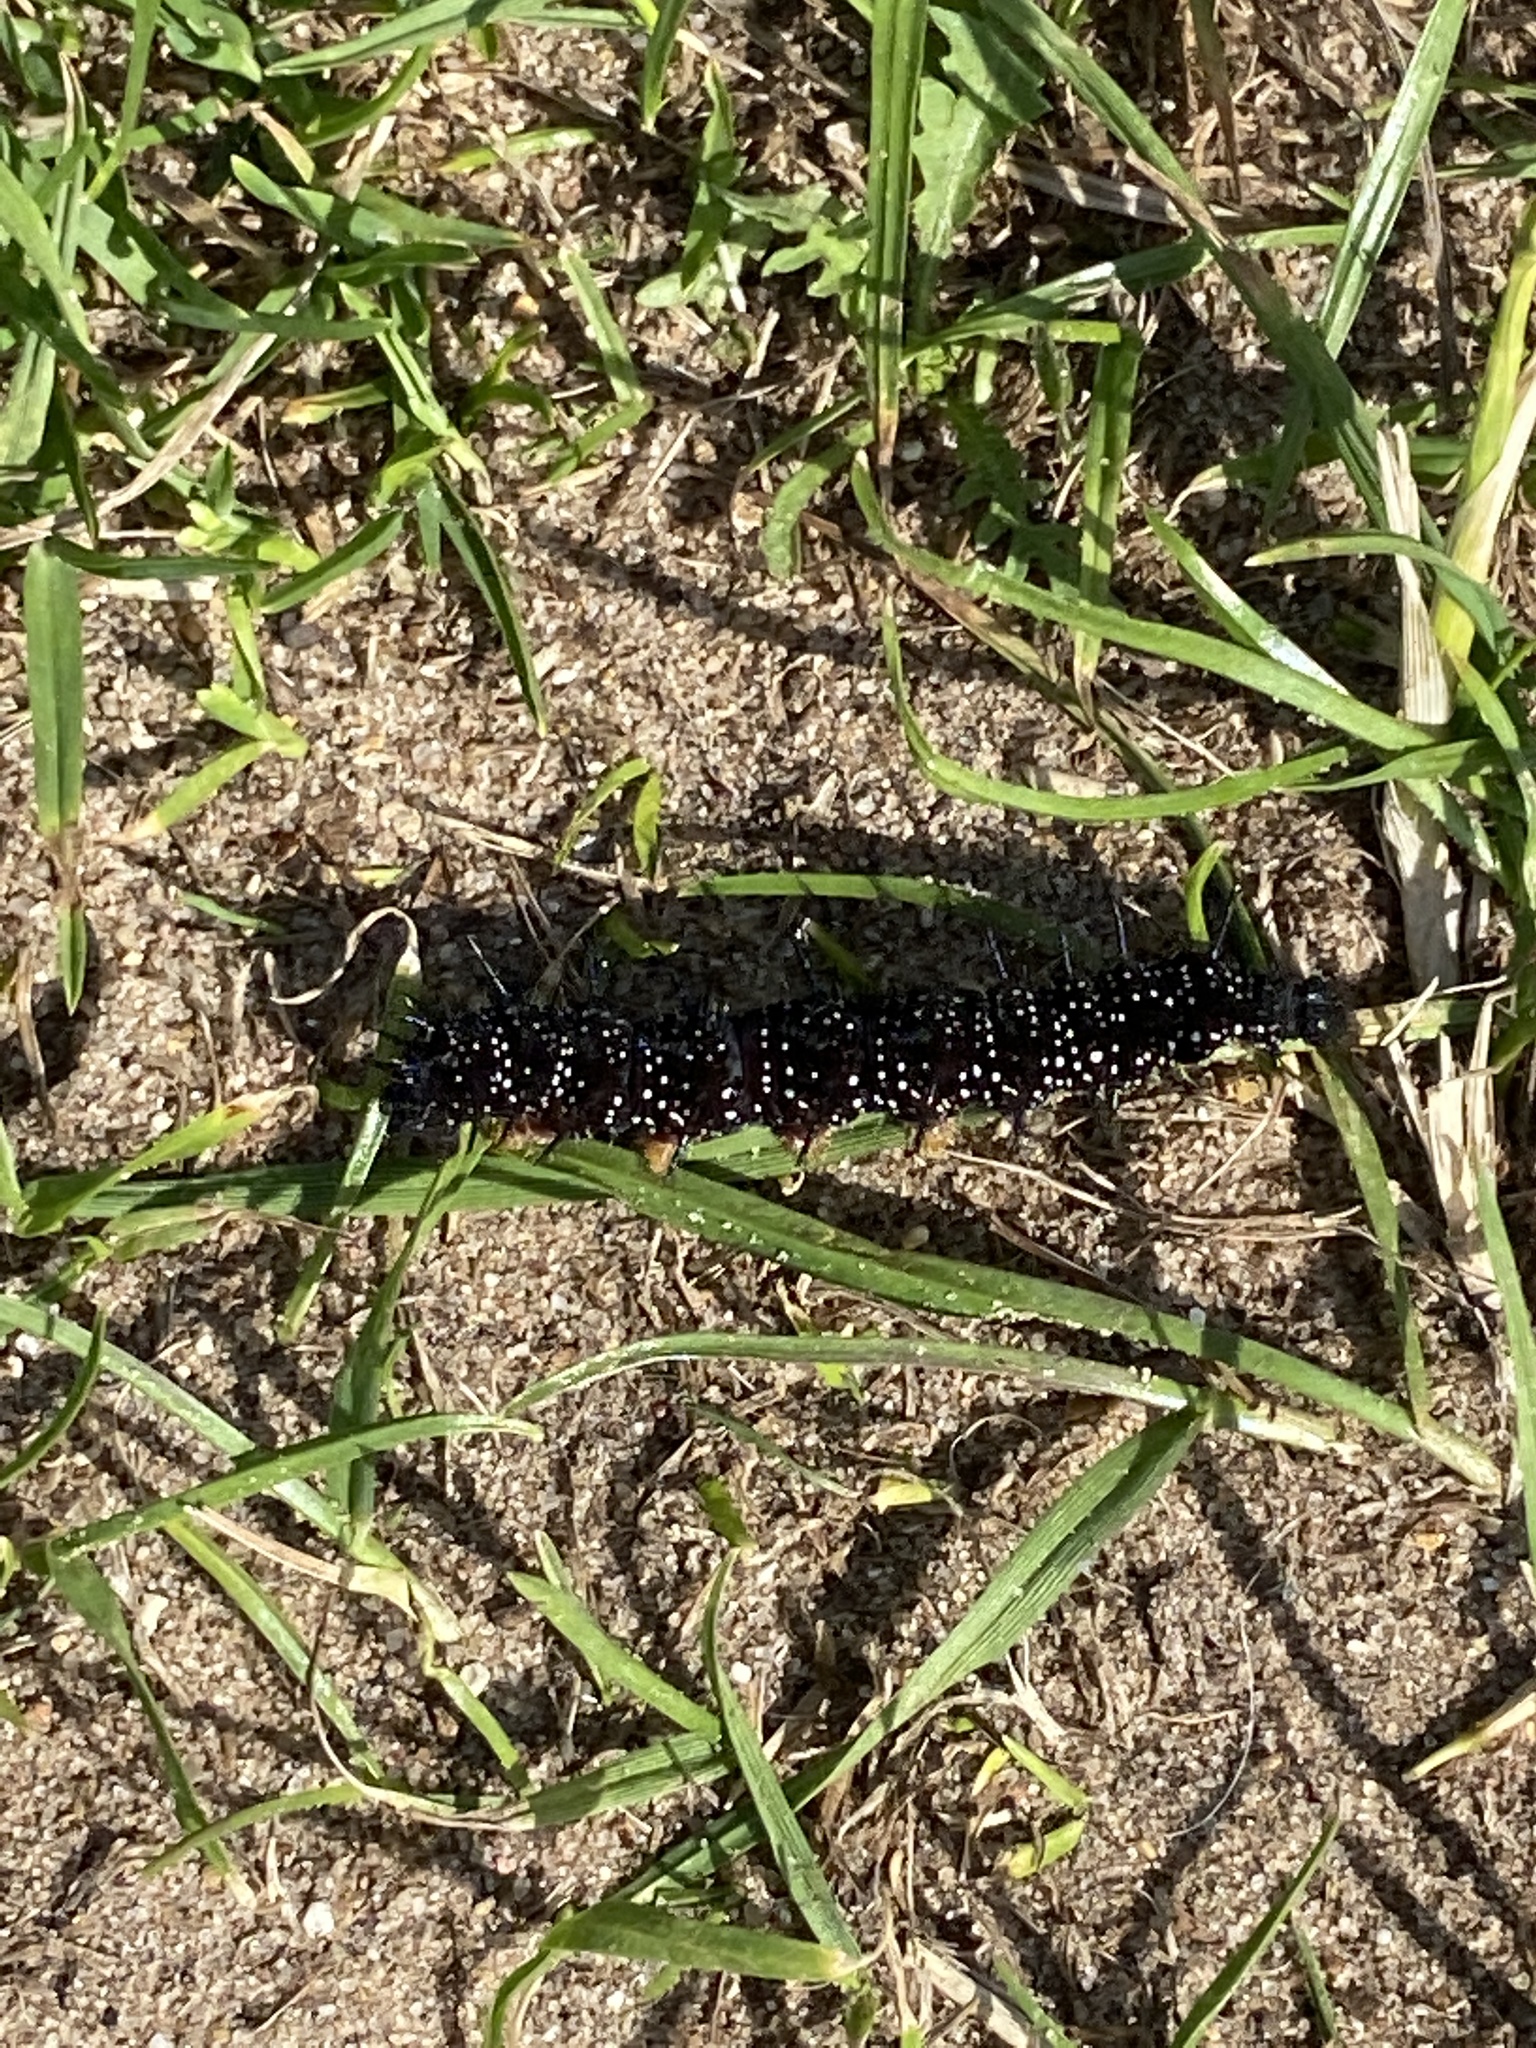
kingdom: Animalia
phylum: Arthropoda
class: Insecta
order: Lepidoptera
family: Nymphalidae
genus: Aglais
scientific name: Aglais io
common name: Peacock
